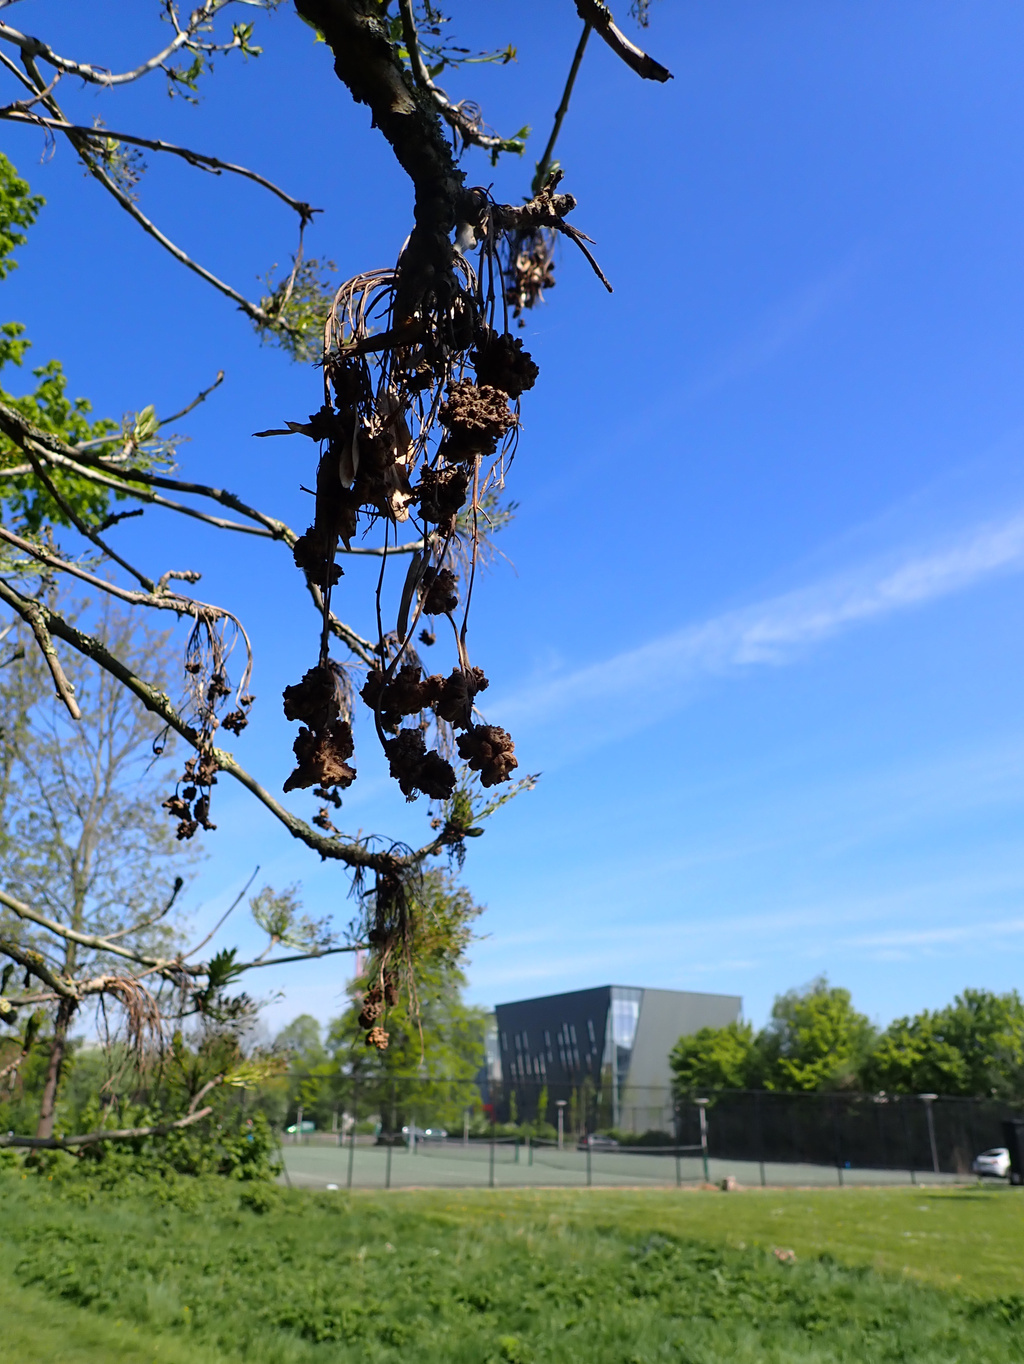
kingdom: Animalia
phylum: Arthropoda
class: Arachnida
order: Trombidiformes
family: Eriophyidae
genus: Aceria
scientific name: Aceria fraxinivora
